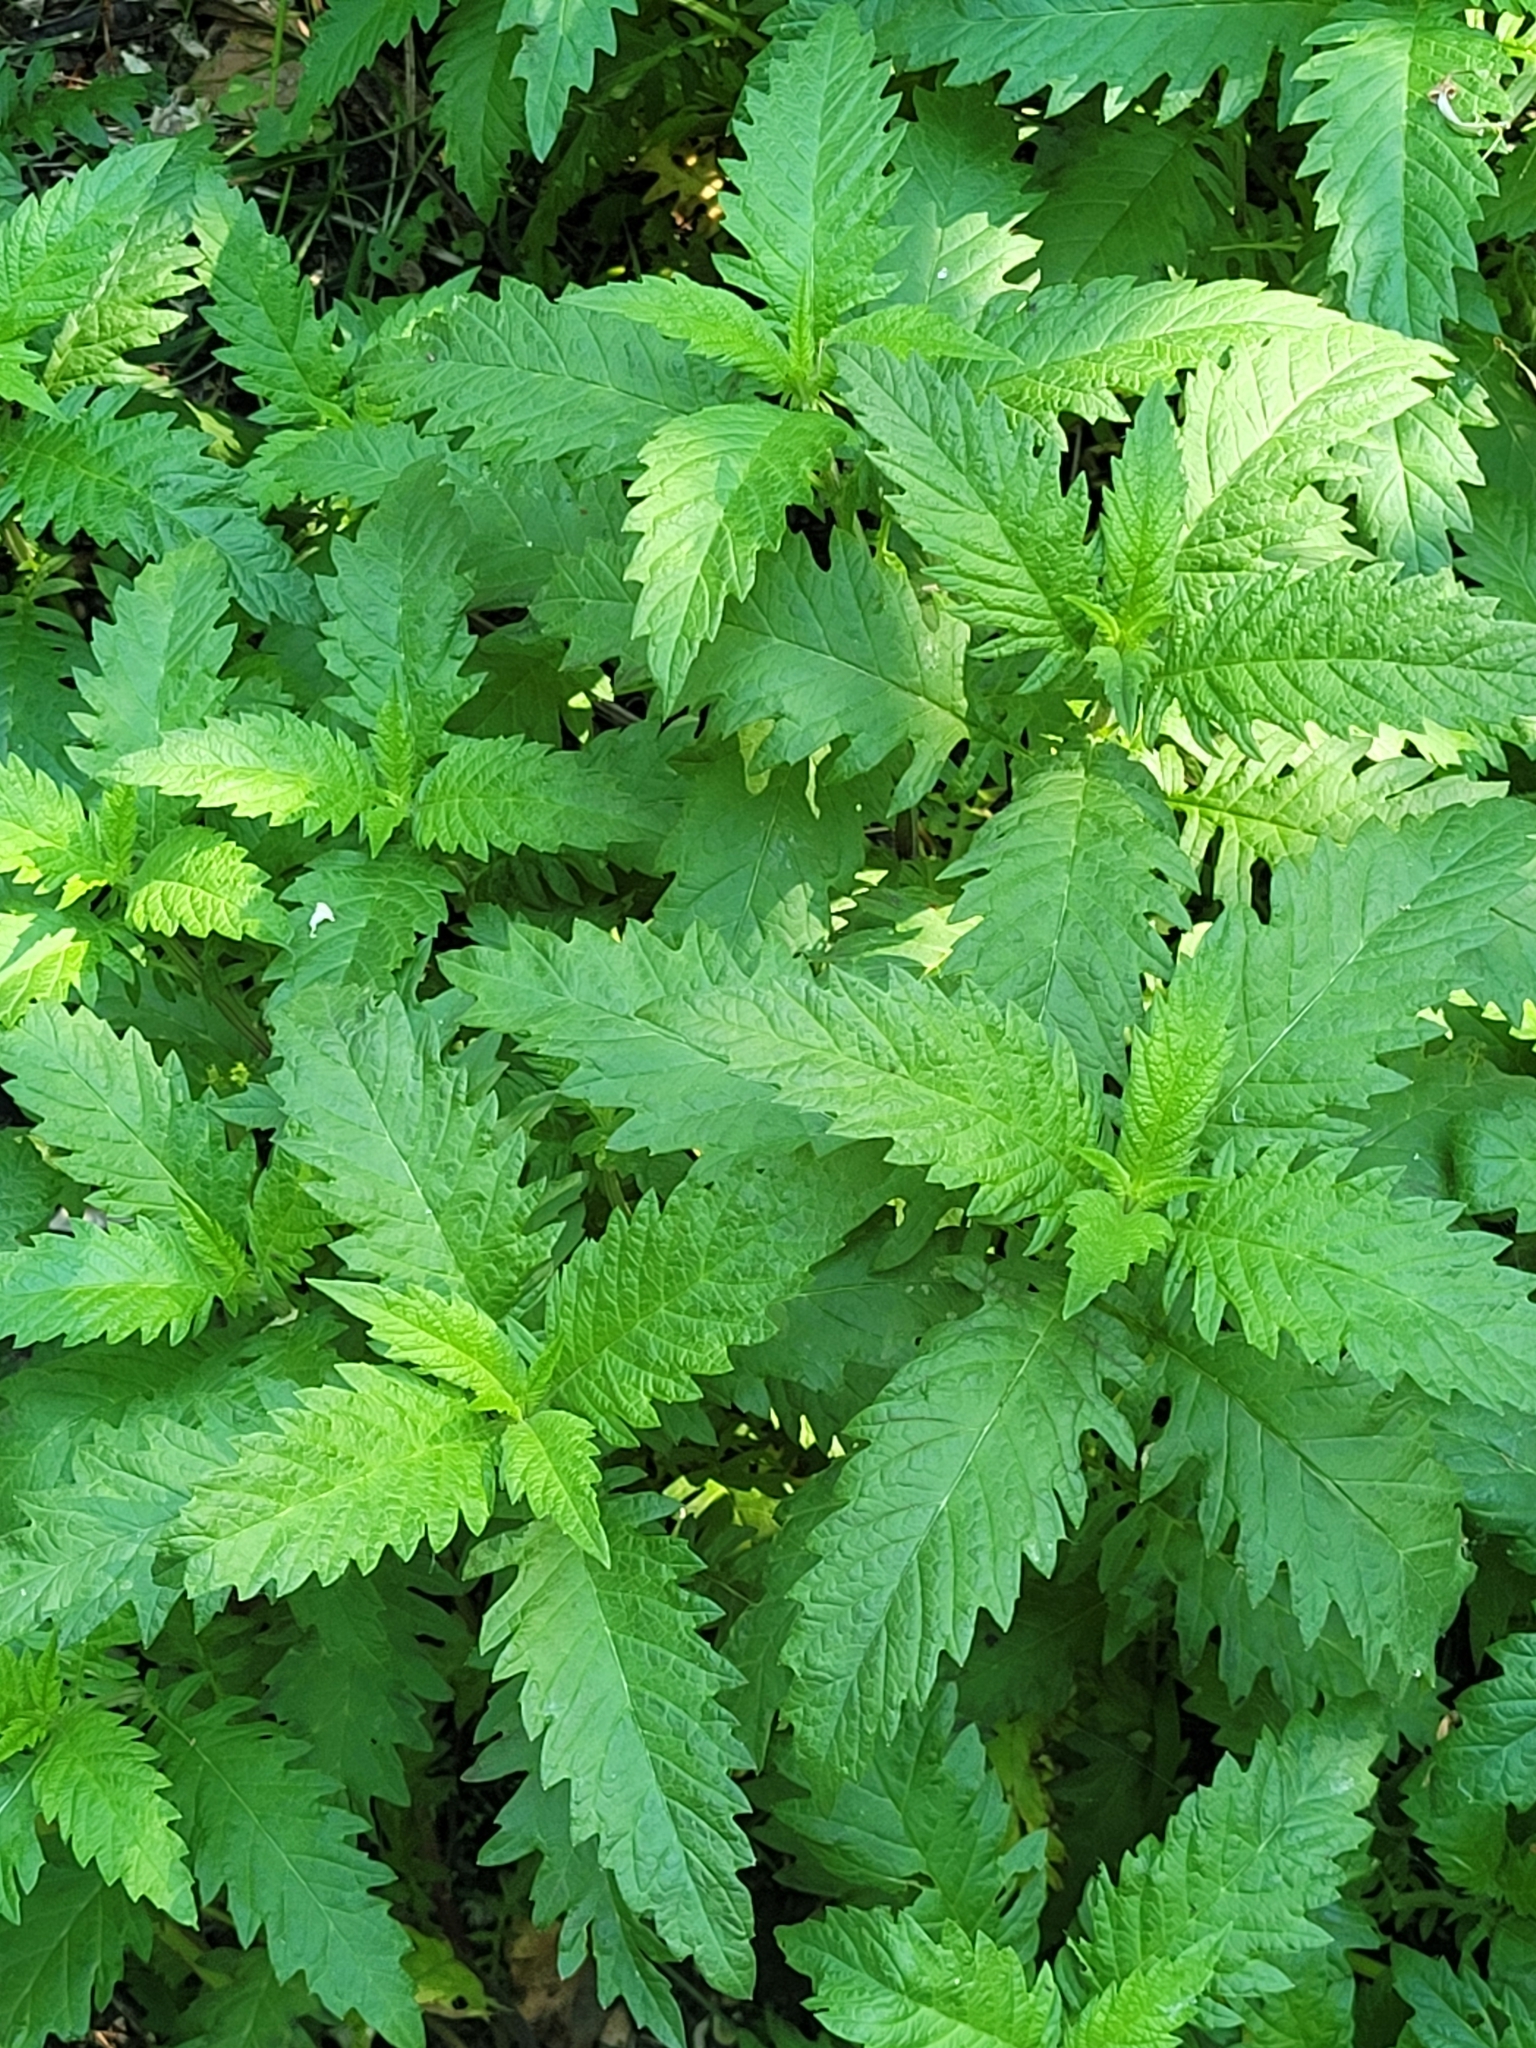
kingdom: Plantae
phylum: Tracheophyta
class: Magnoliopsida
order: Lamiales
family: Lamiaceae
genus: Lycopus
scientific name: Lycopus europaeus
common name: European bugleweed
